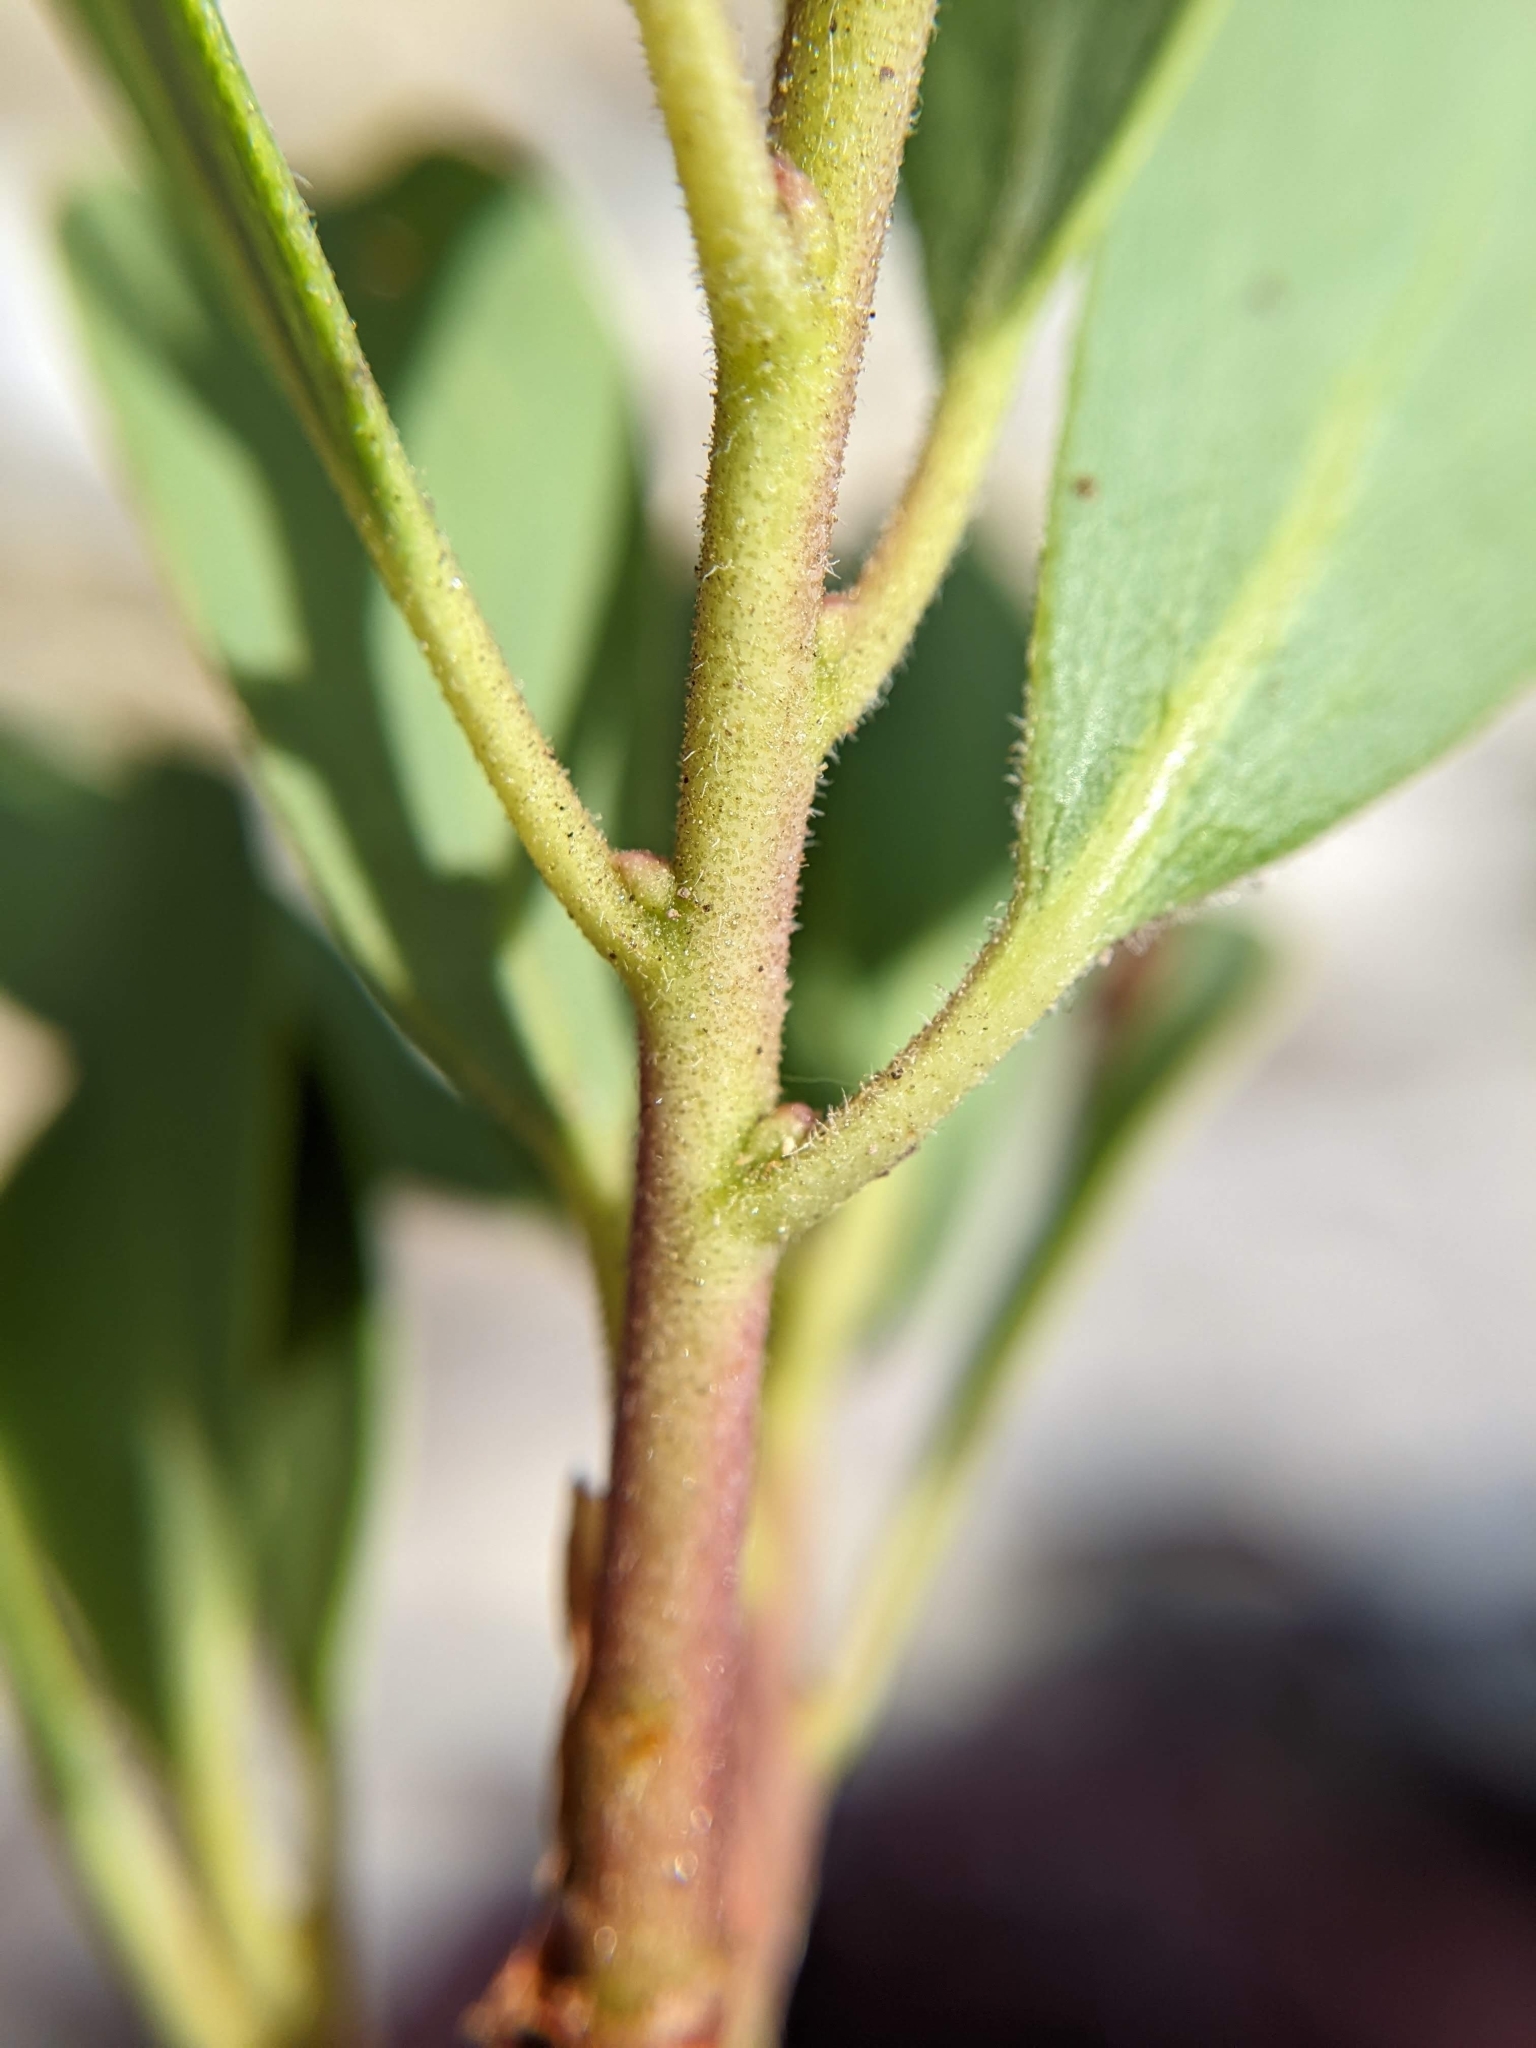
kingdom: Plantae
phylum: Tracheophyta
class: Magnoliopsida
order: Ericales
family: Ericaceae
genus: Arctostaphylos
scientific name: Arctostaphylos nevadensis
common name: Pinemat manzanita
